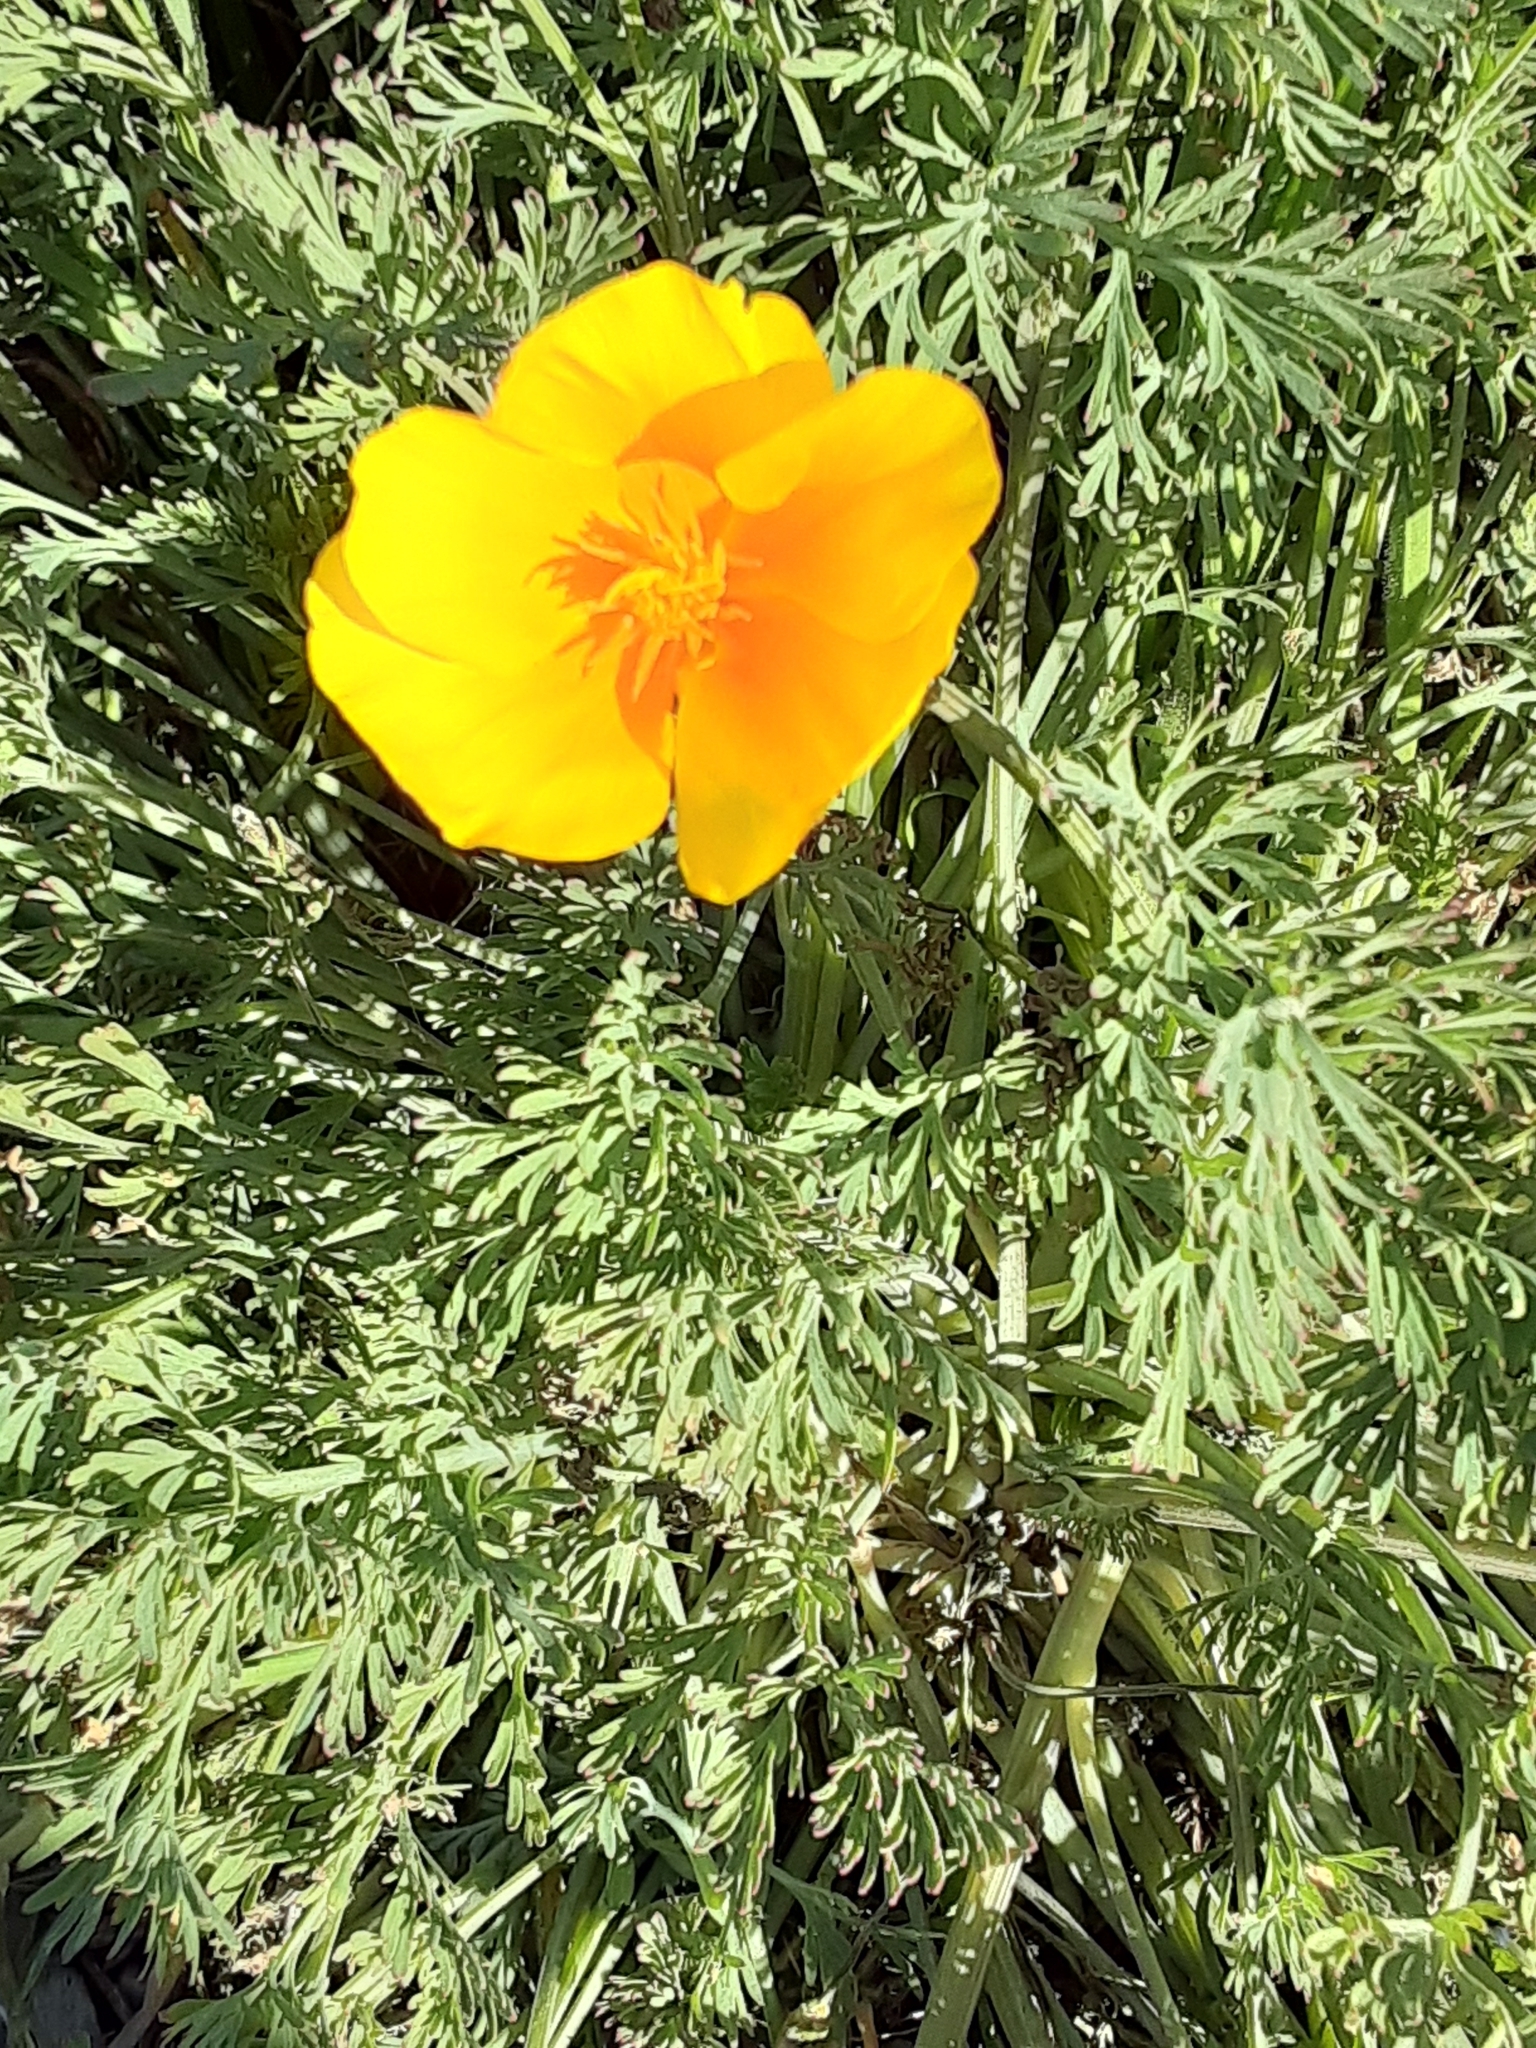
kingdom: Plantae
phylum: Tracheophyta
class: Magnoliopsida
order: Ranunculales
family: Papaveraceae
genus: Eschscholzia
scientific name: Eschscholzia californica
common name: California poppy
